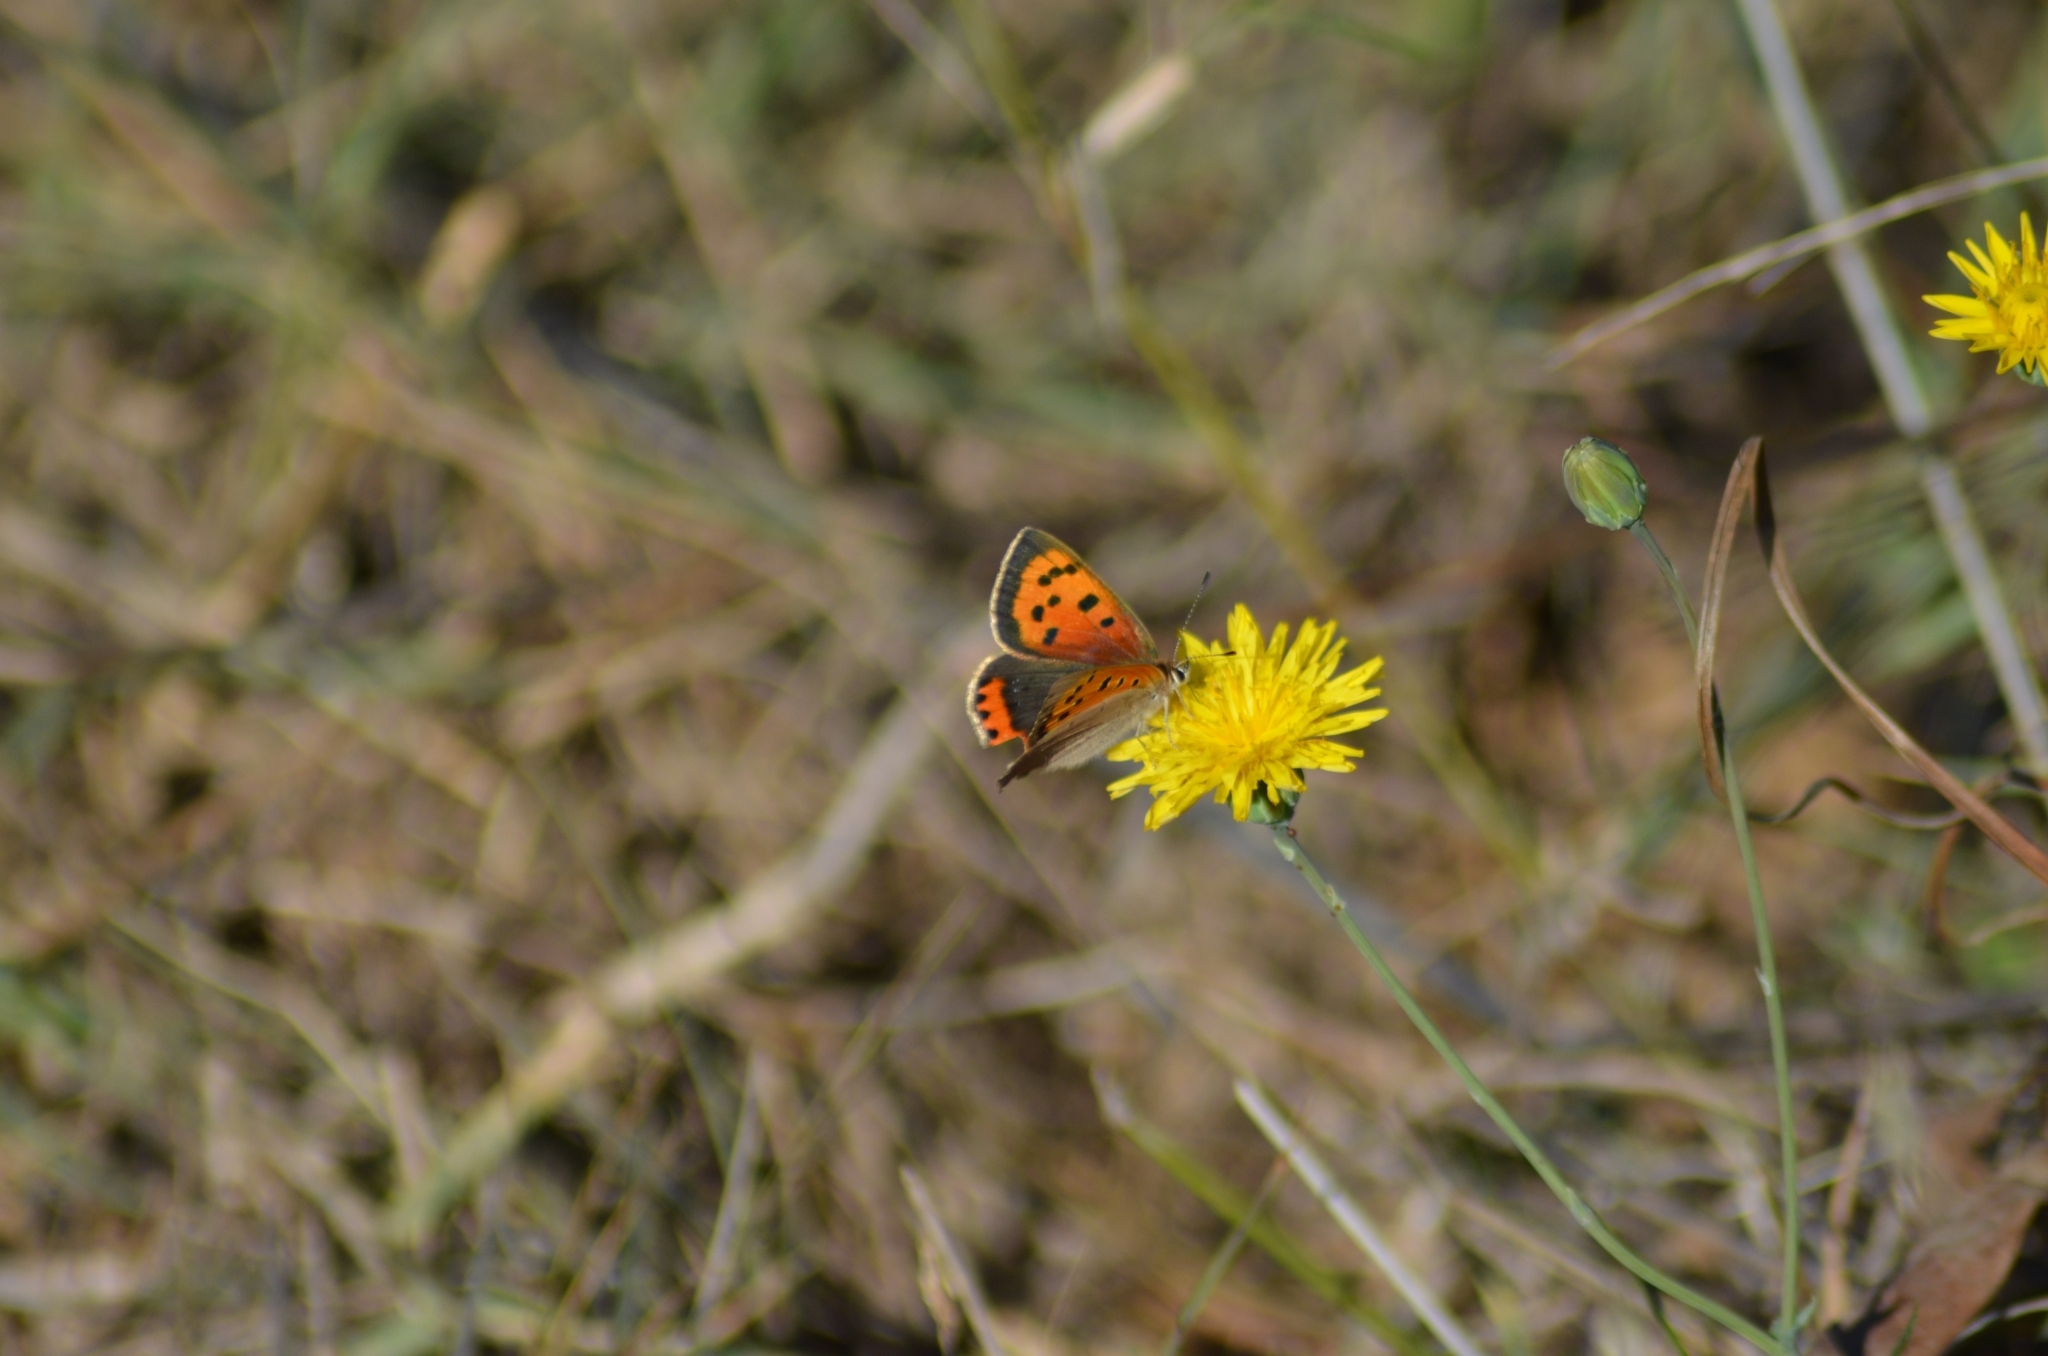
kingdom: Animalia
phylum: Arthropoda
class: Insecta
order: Lepidoptera
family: Lycaenidae
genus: Lycaena
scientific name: Lycaena phlaeas
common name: Small copper
